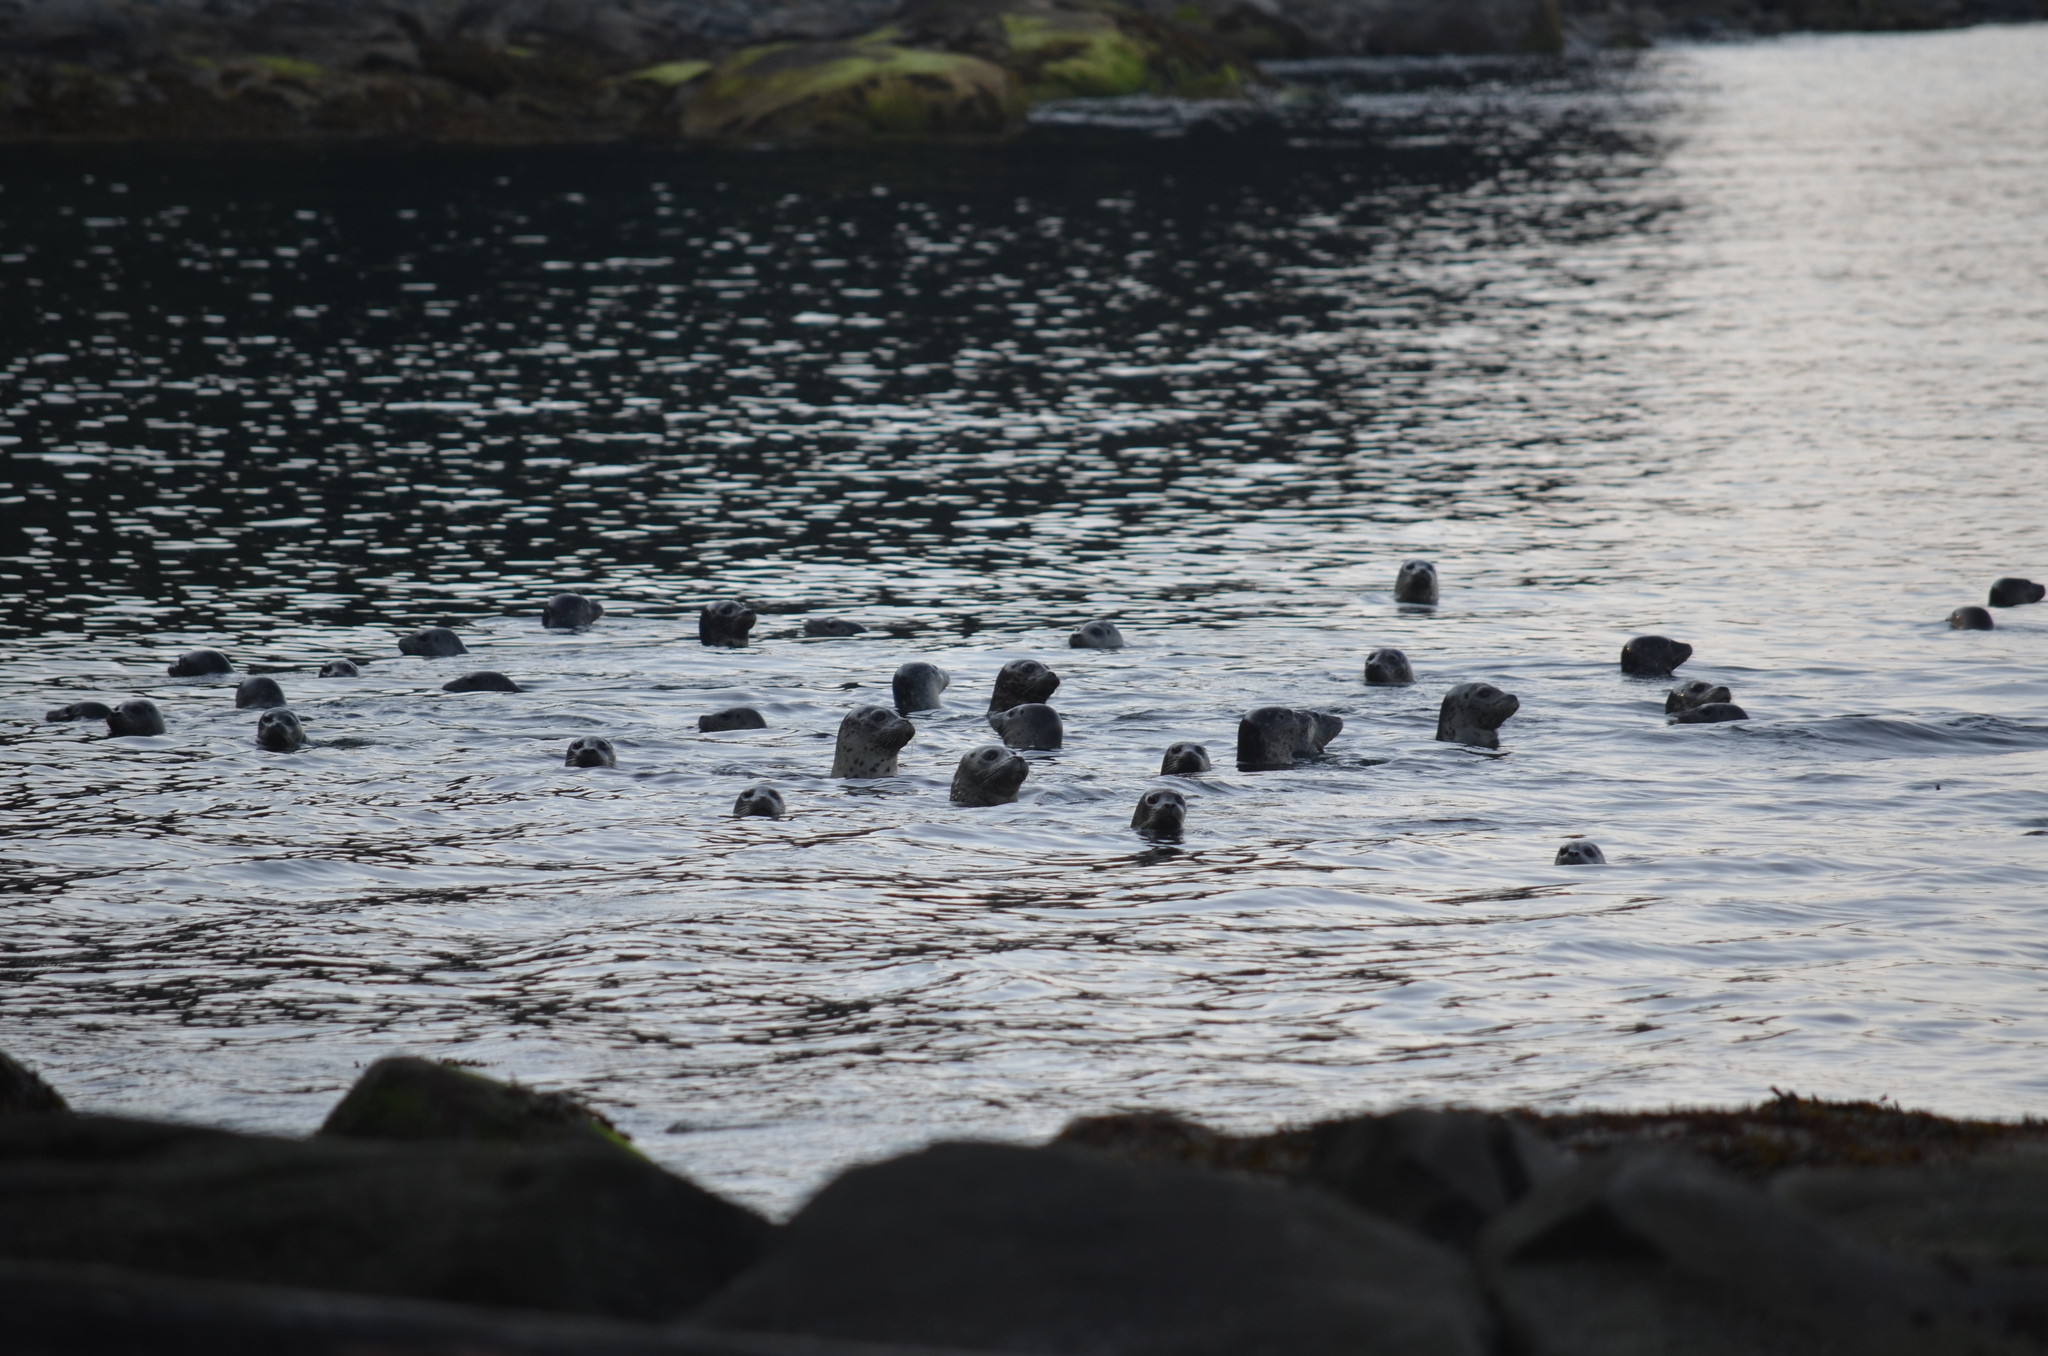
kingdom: Animalia
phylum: Chordata
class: Mammalia
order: Carnivora
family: Phocidae
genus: Phoca
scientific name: Phoca vitulina
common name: Harbor seal
